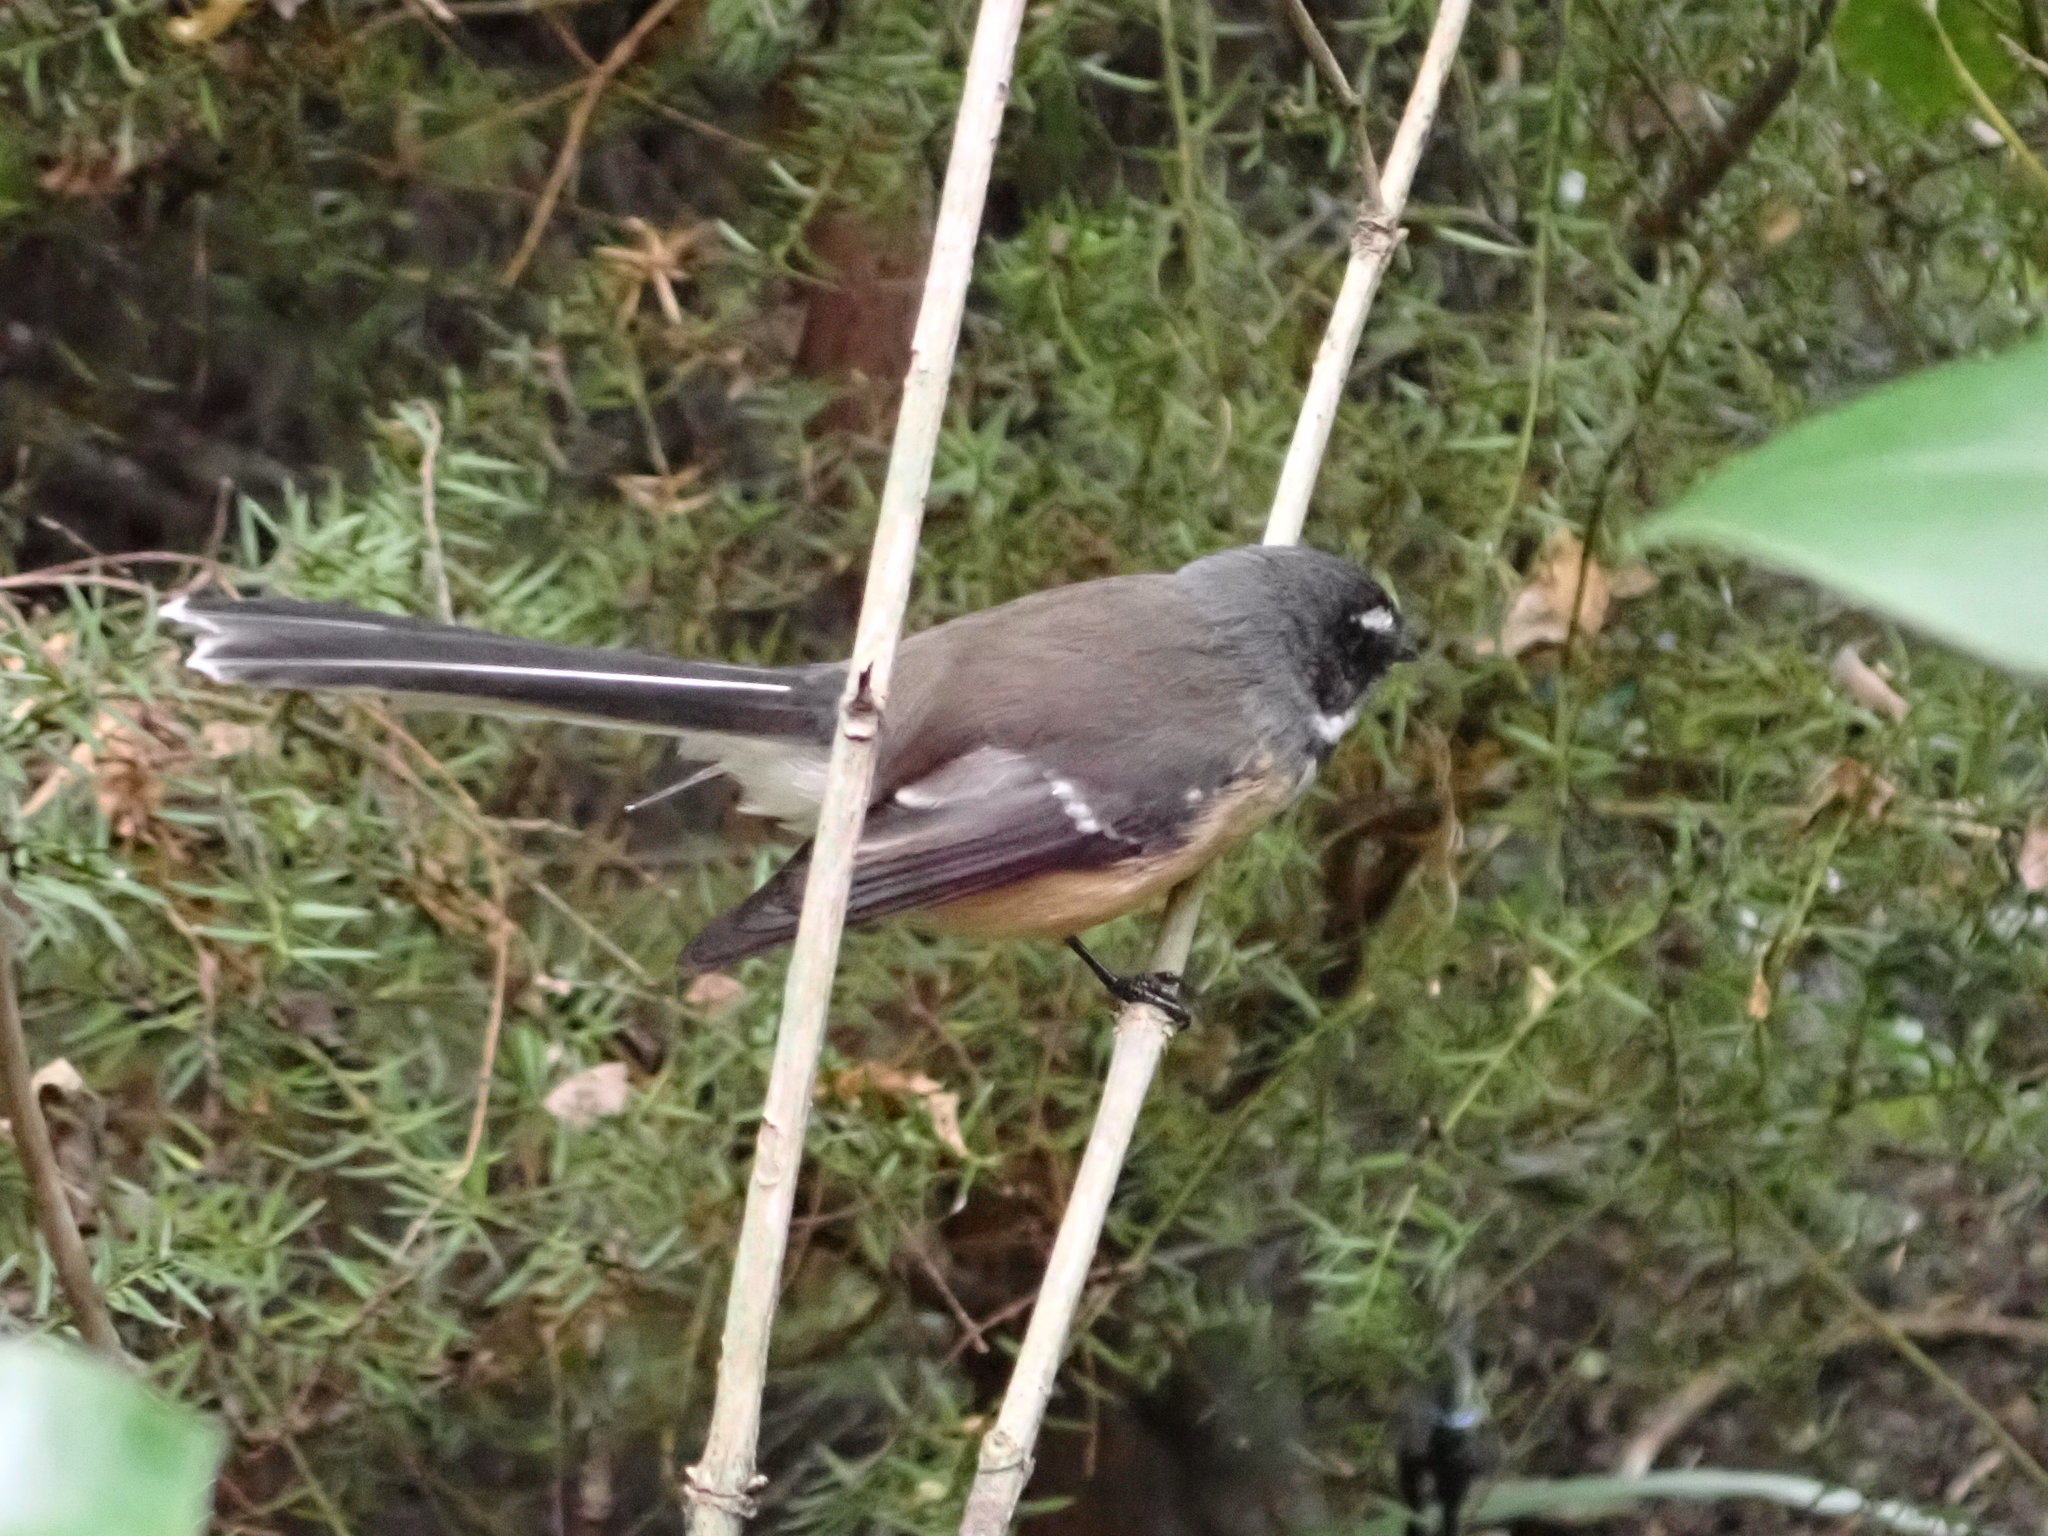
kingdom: Animalia
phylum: Chordata
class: Aves
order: Passeriformes
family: Rhipiduridae
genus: Rhipidura
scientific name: Rhipidura fuliginosa
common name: New zealand fantail
